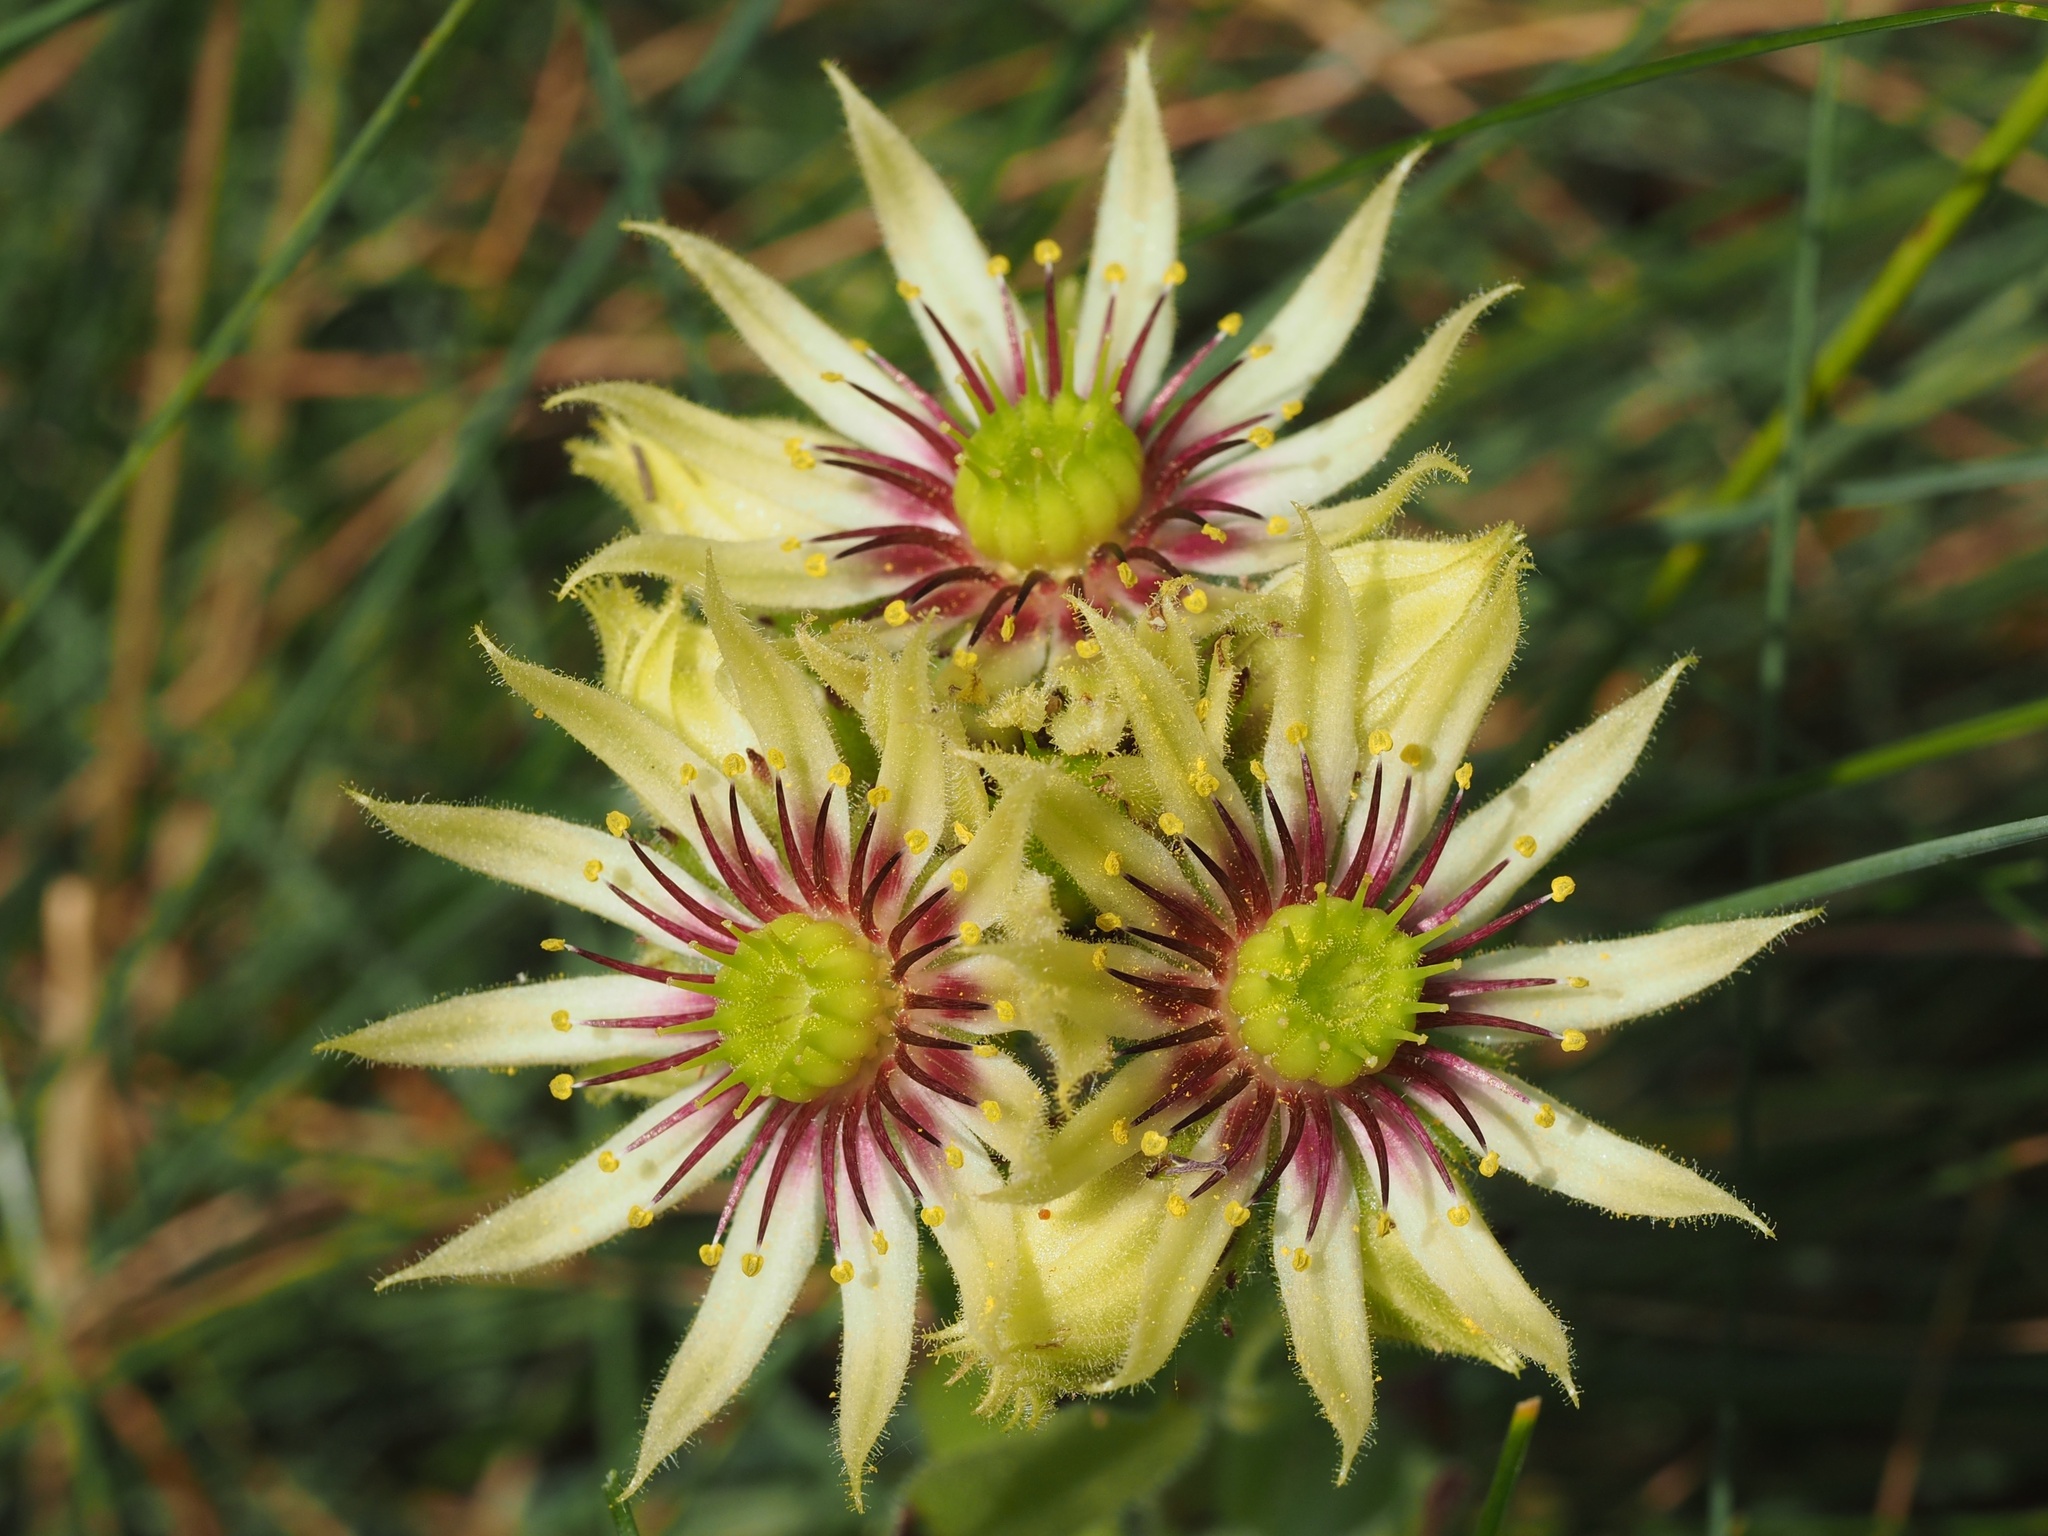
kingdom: Plantae
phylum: Tracheophyta
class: Magnoliopsida
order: Saxifragales
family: Crassulaceae
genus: Sempervivum
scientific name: Sempervivum grandiflorum
